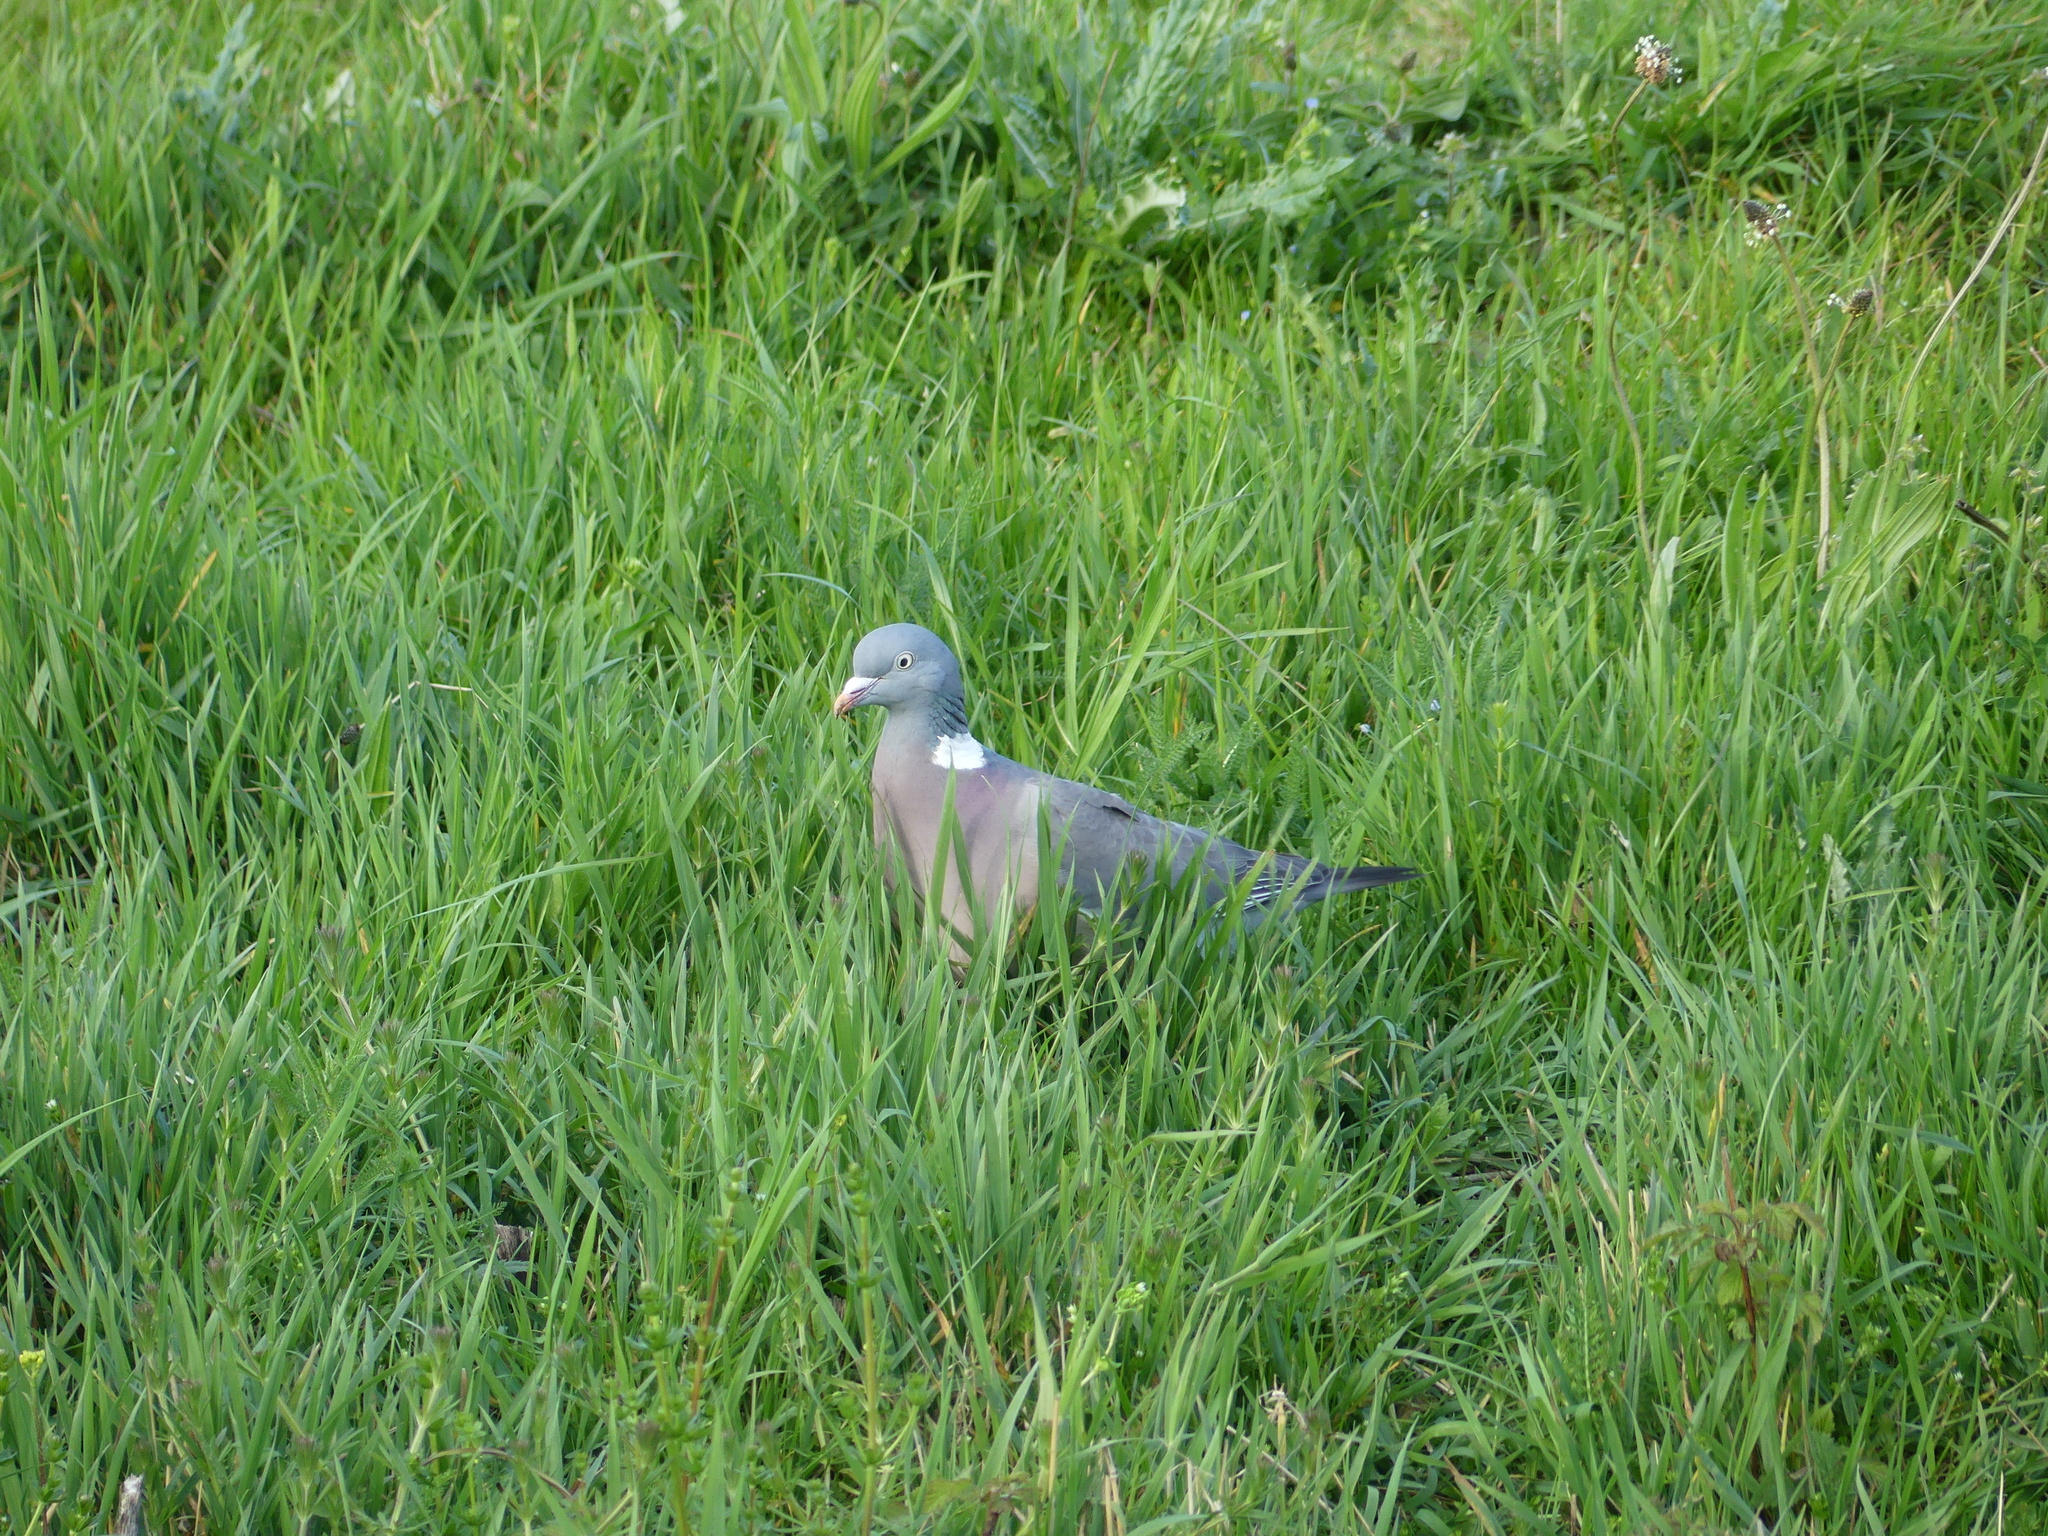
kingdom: Animalia
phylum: Chordata
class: Aves
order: Columbiformes
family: Columbidae
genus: Columba
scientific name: Columba palumbus
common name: Common wood pigeon
